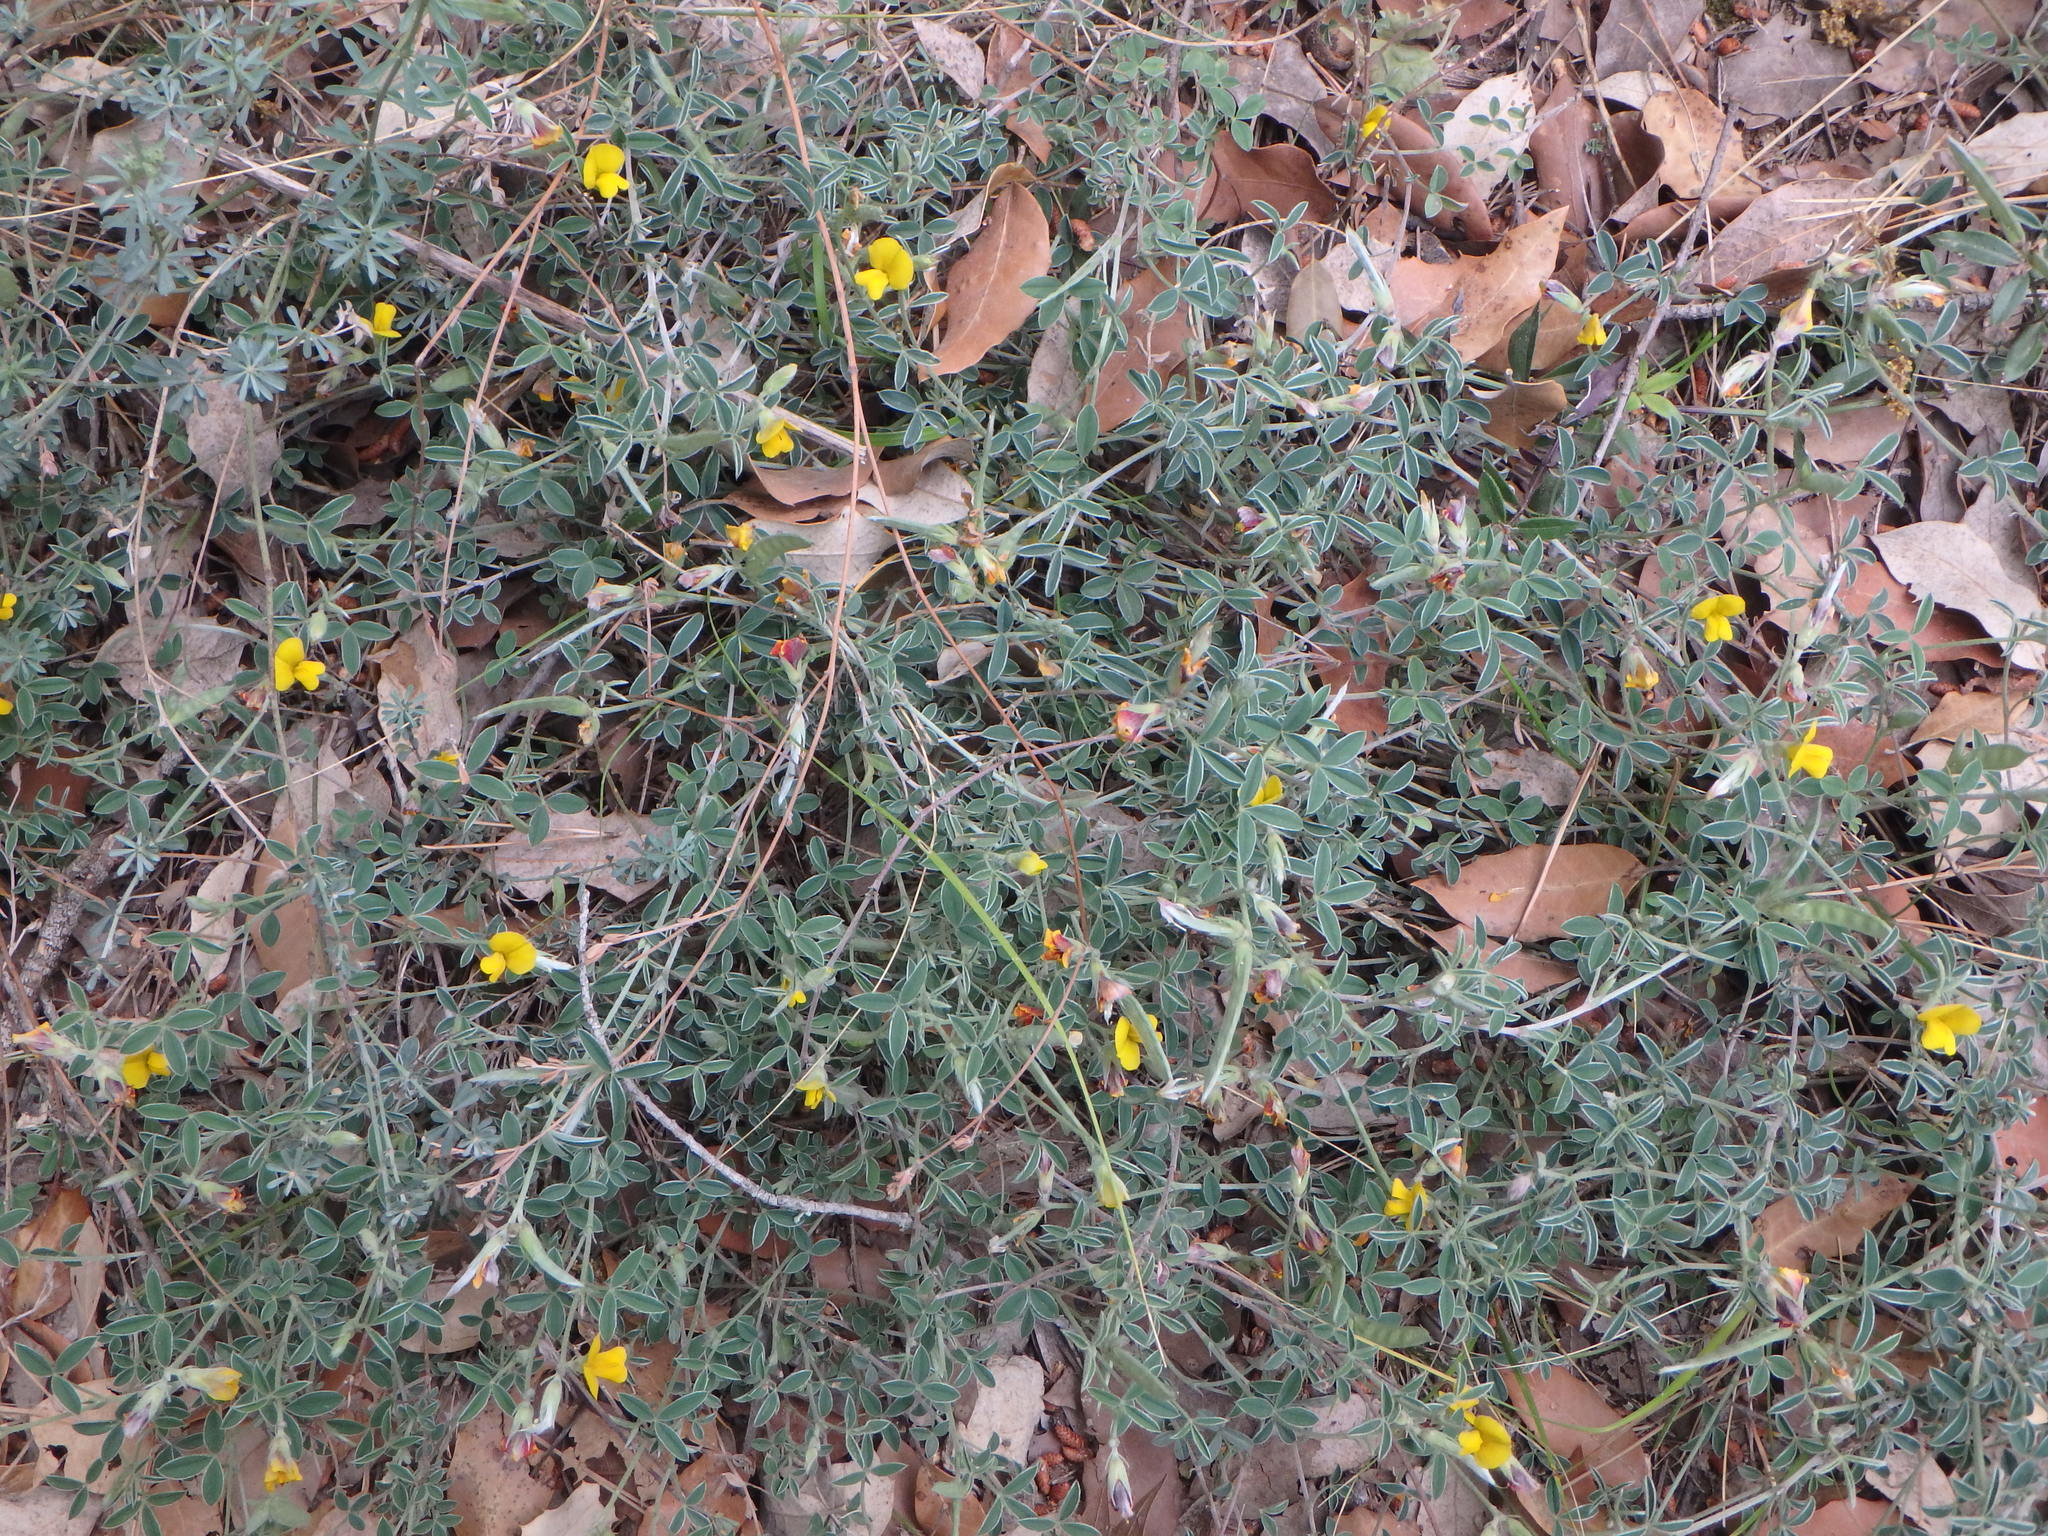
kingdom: Plantae
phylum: Tracheophyta
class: Magnoliopsida
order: Fabales
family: Fabaceae
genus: Argyrolobium
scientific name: Argyrolobium zanonii
